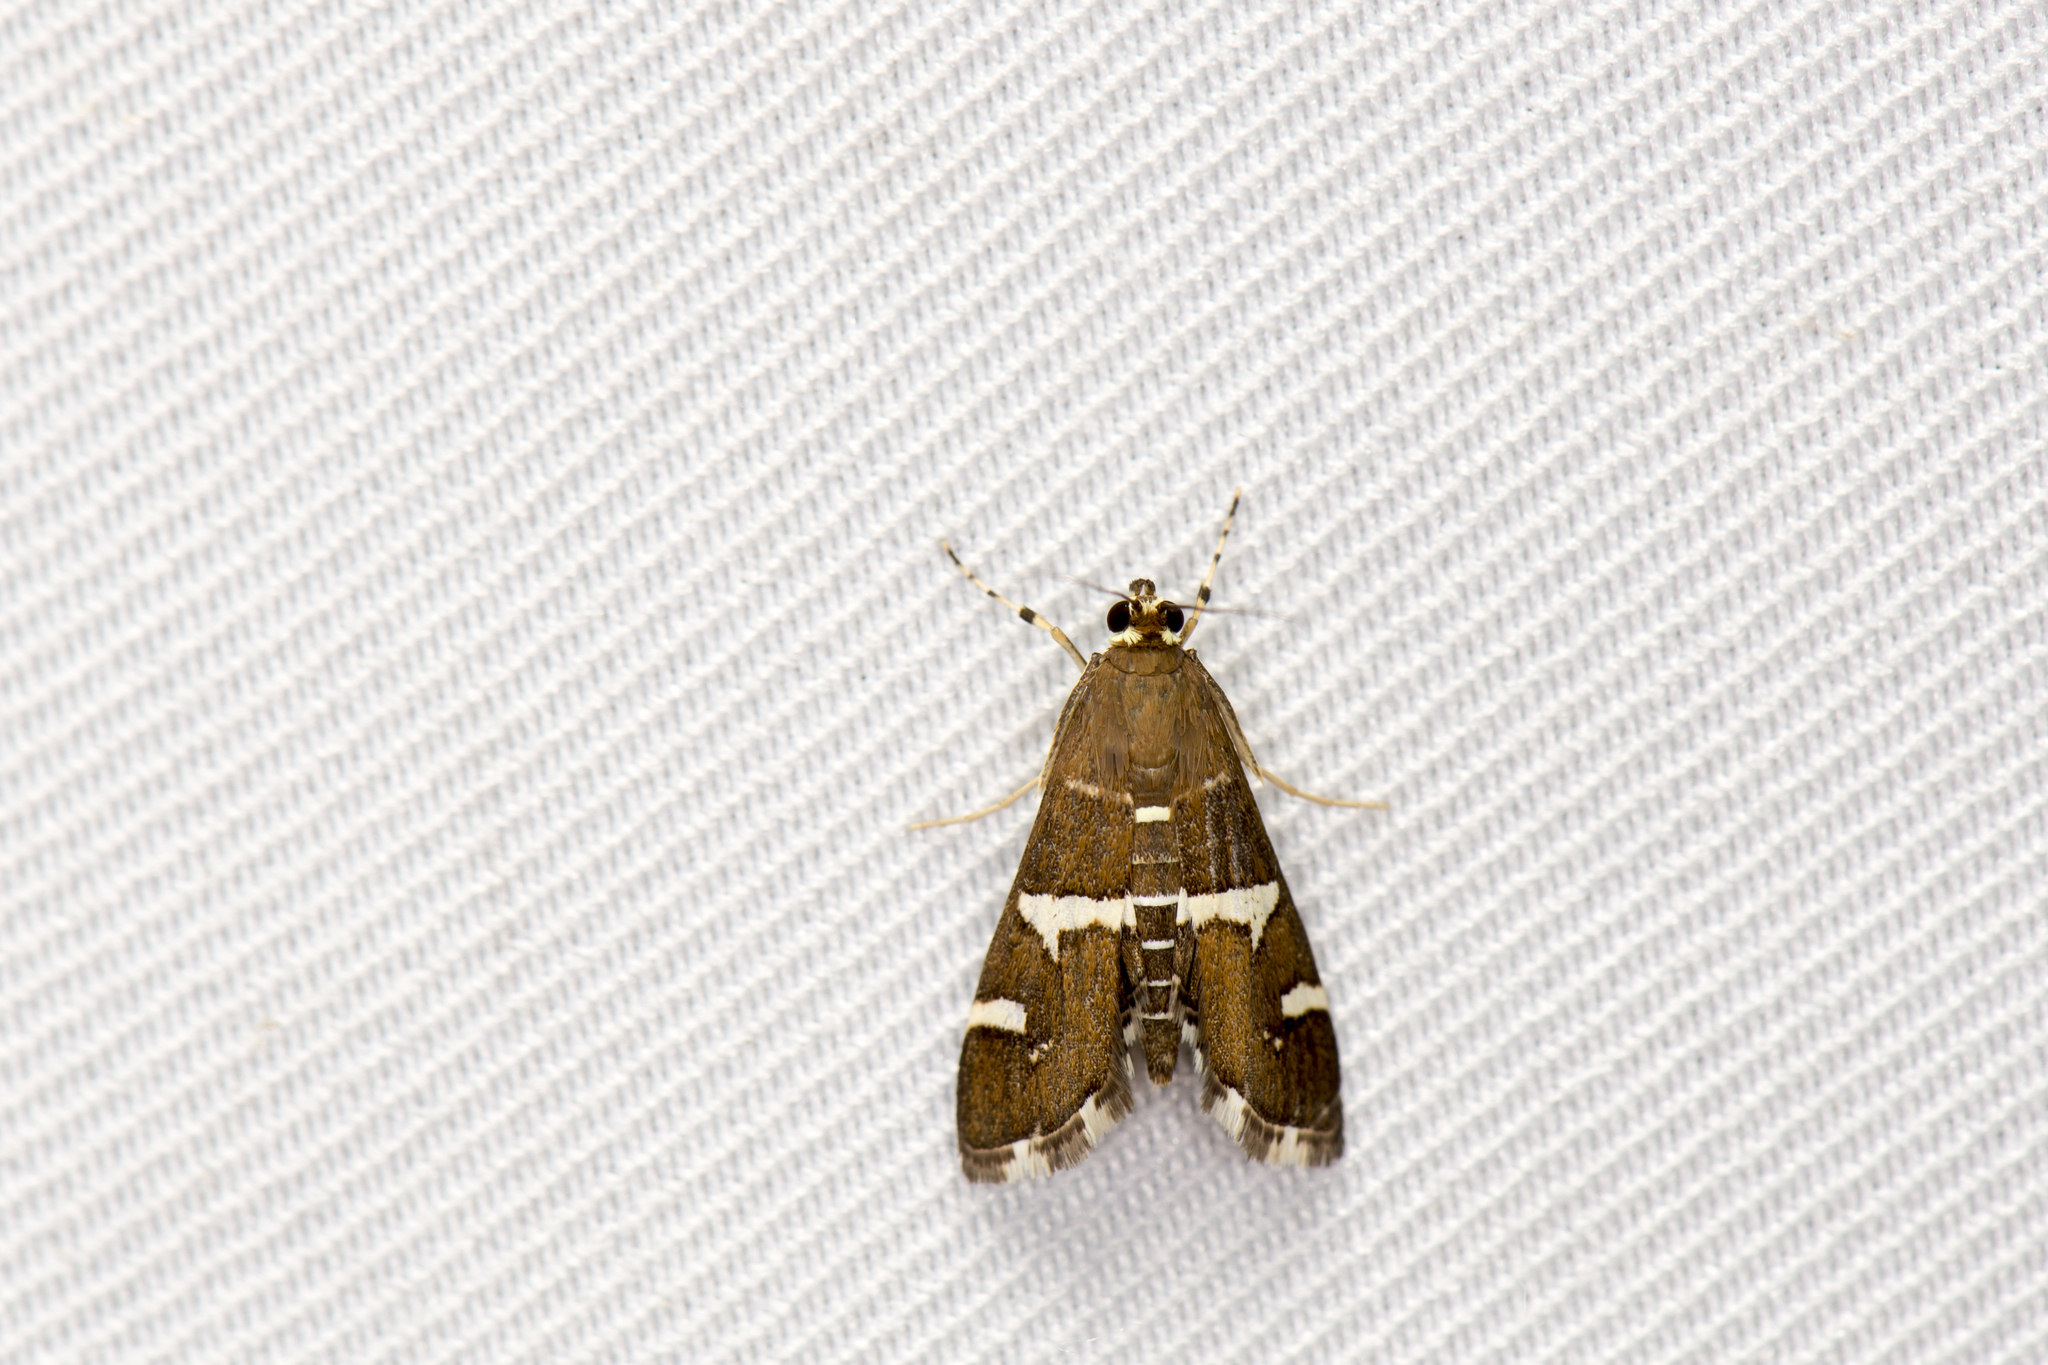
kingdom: Animalia
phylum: Arthropoda
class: Insecta
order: Lepidoptera
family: Crambidae
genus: Spoladea
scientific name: Spoladea recurvalis
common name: Beet webworm moth
